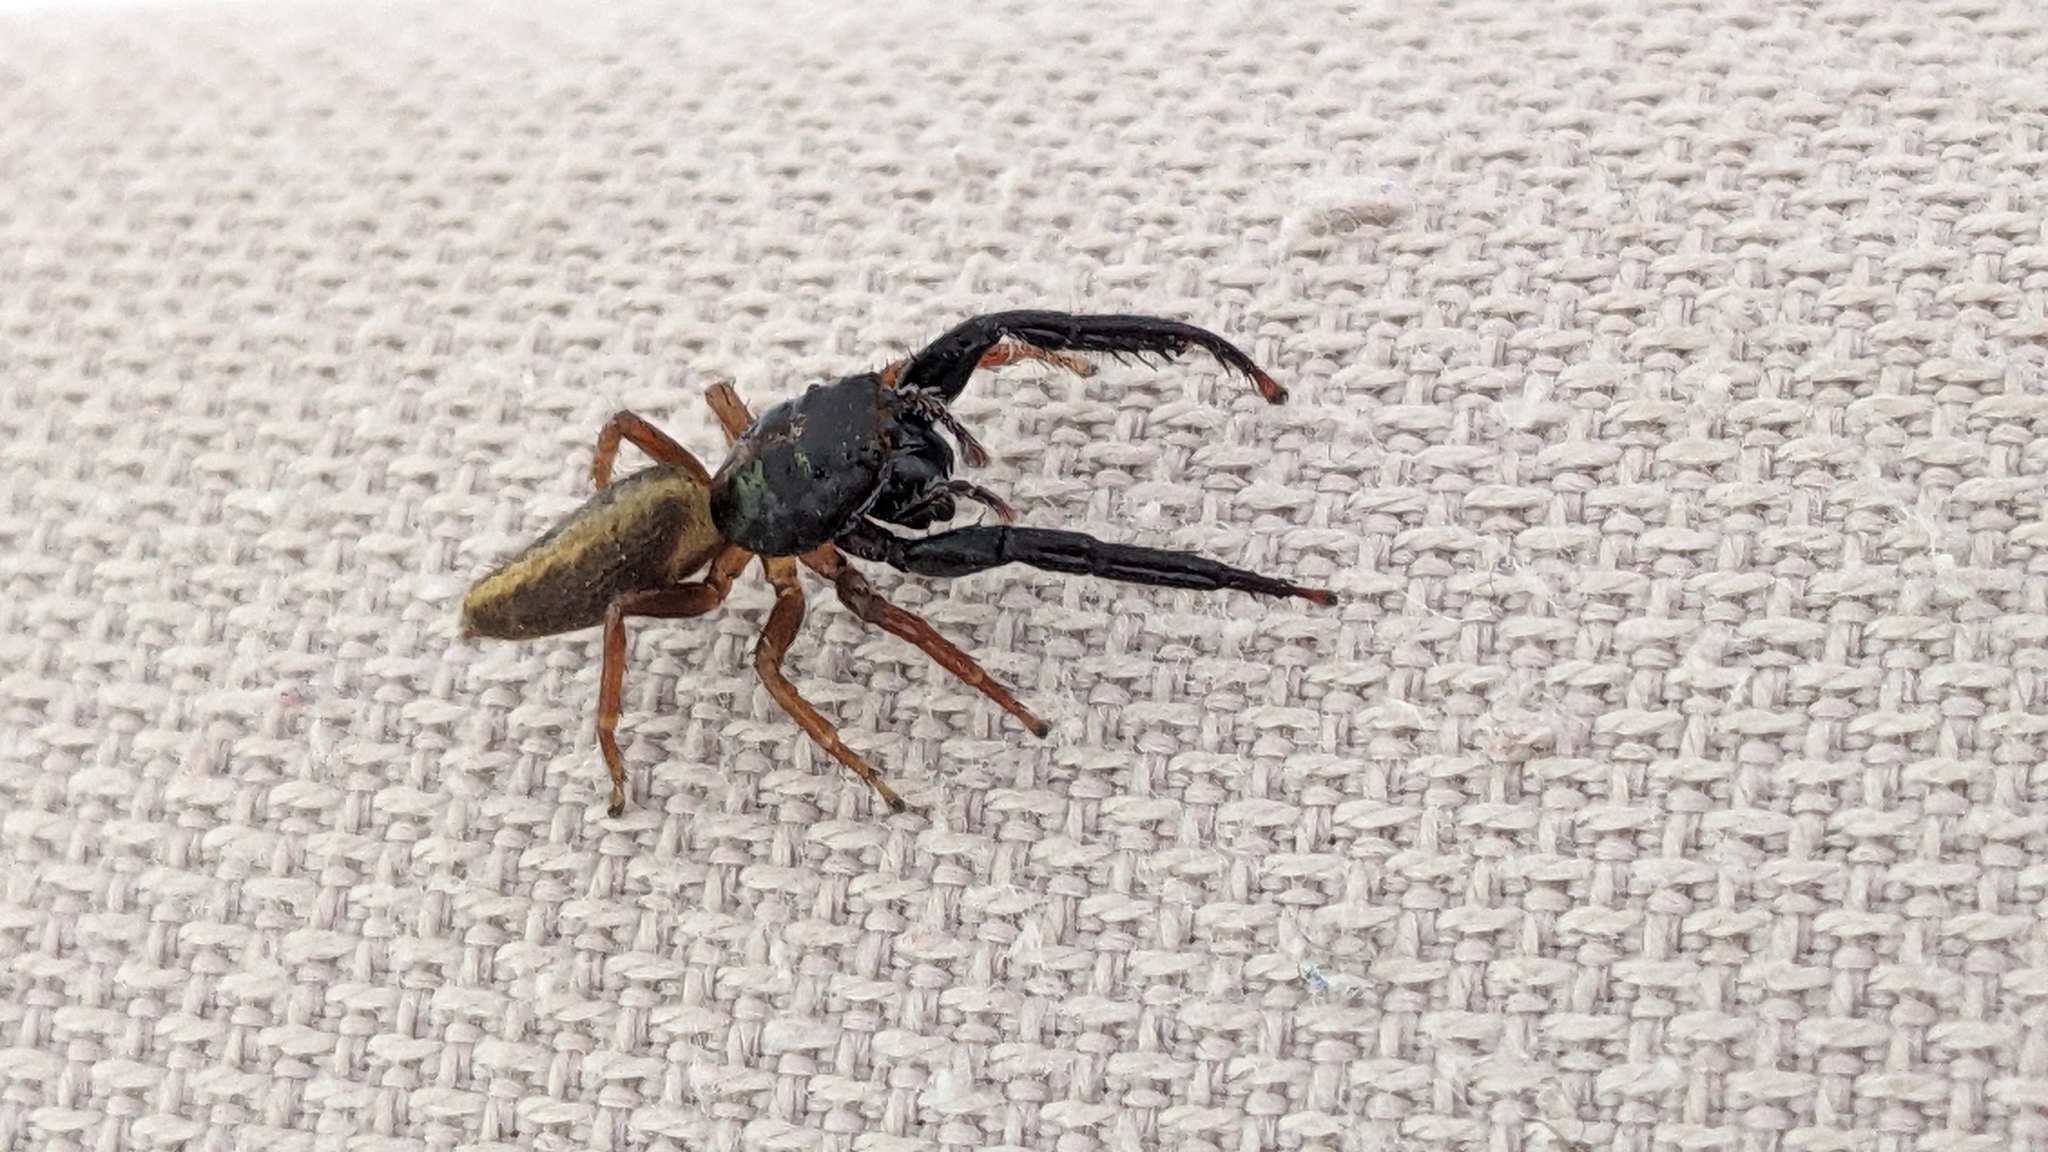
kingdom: Animalia
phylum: Arthropoda
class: Arachnida
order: Araneae
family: Salticidae
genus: Trite
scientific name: Trite planiceps
